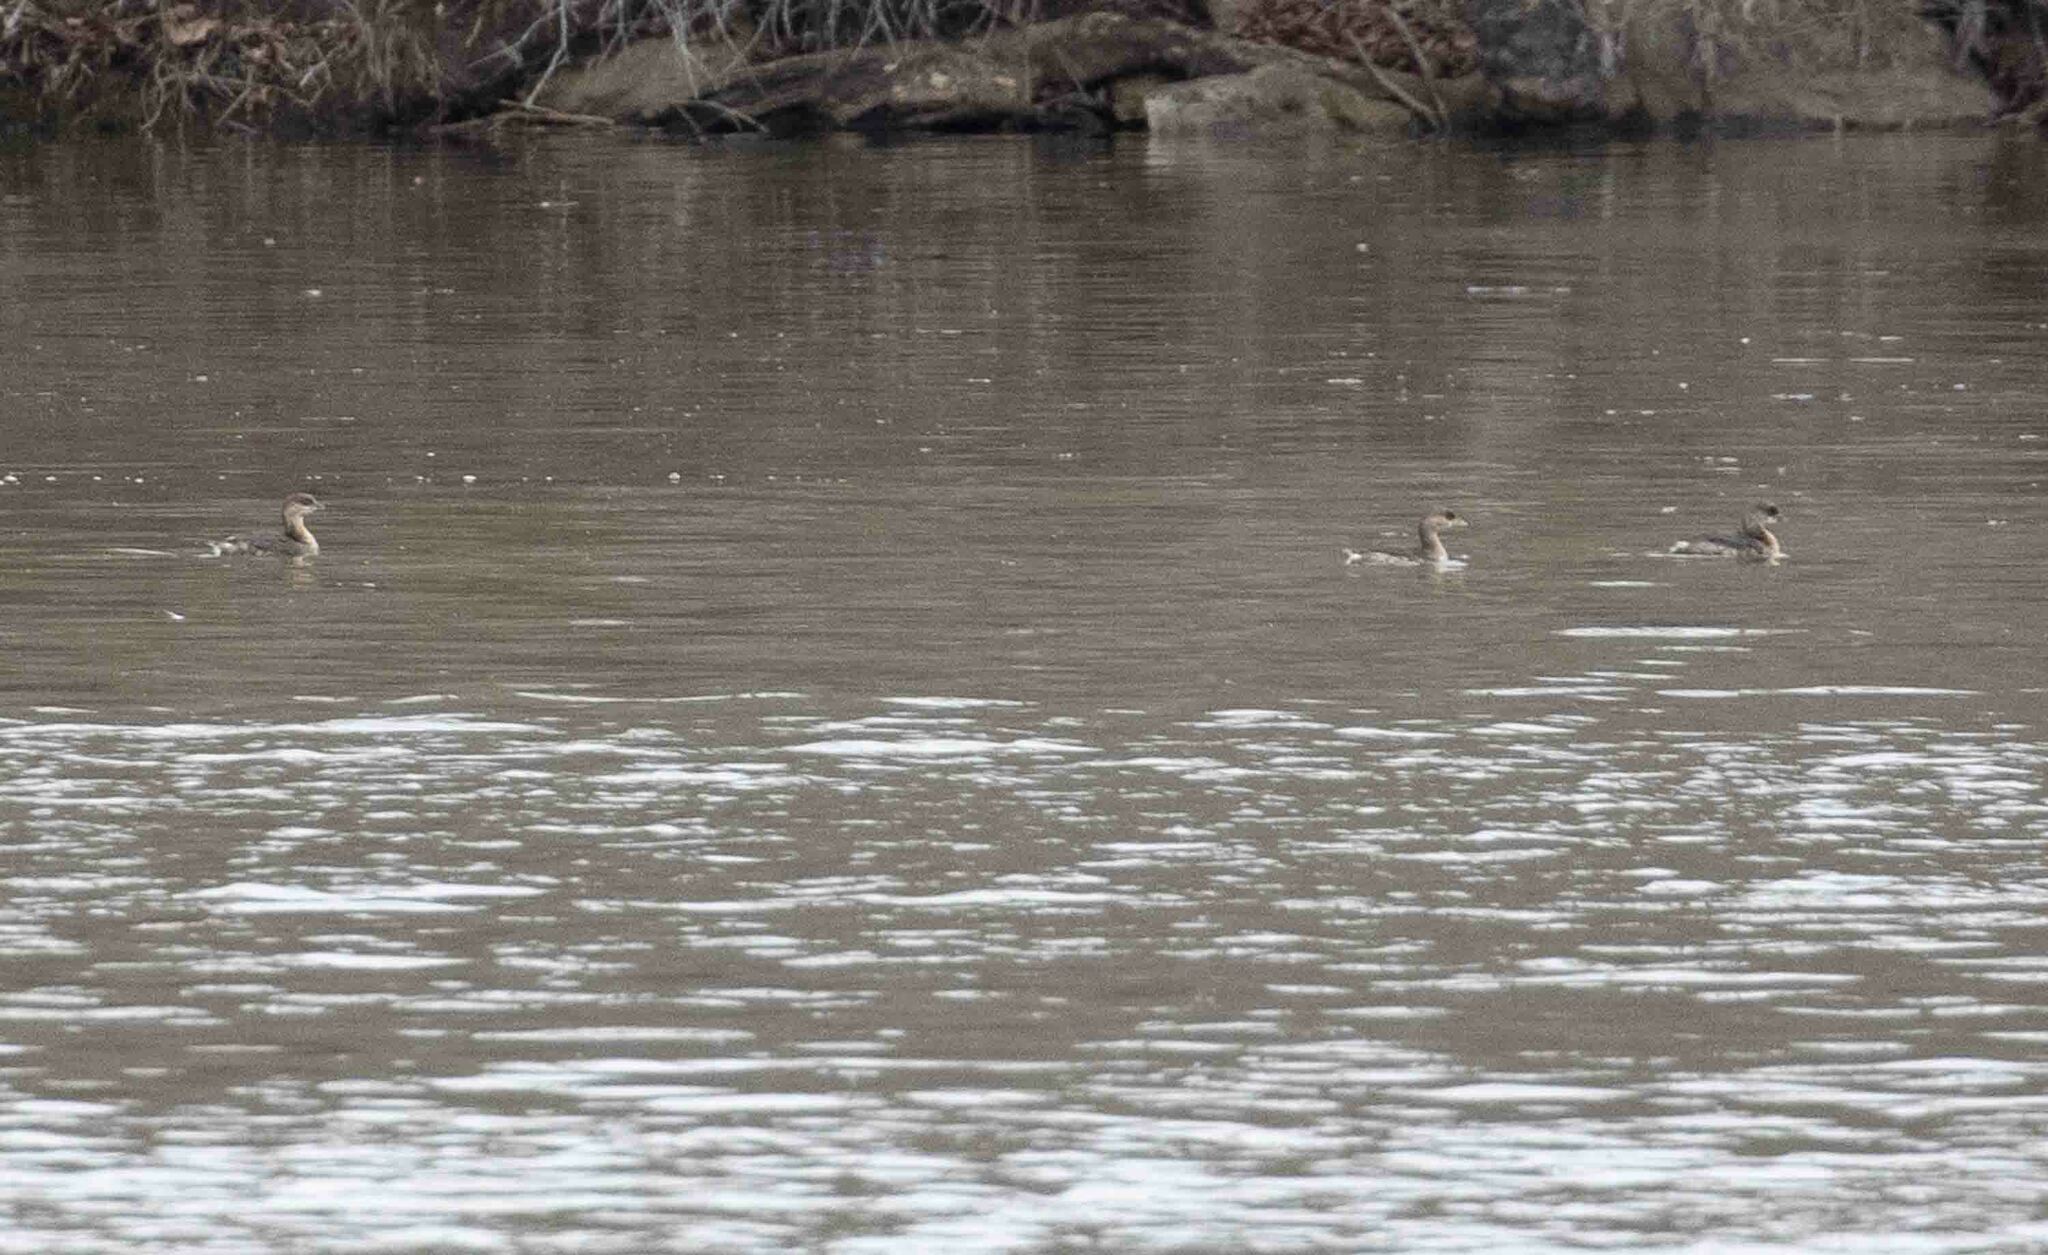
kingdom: Animalia
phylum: Chordata
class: Aves
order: Podicipediformes
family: Podicipedidae
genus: Podilymbus
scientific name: Podilymbus podiceps
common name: Pied-billed grebe
